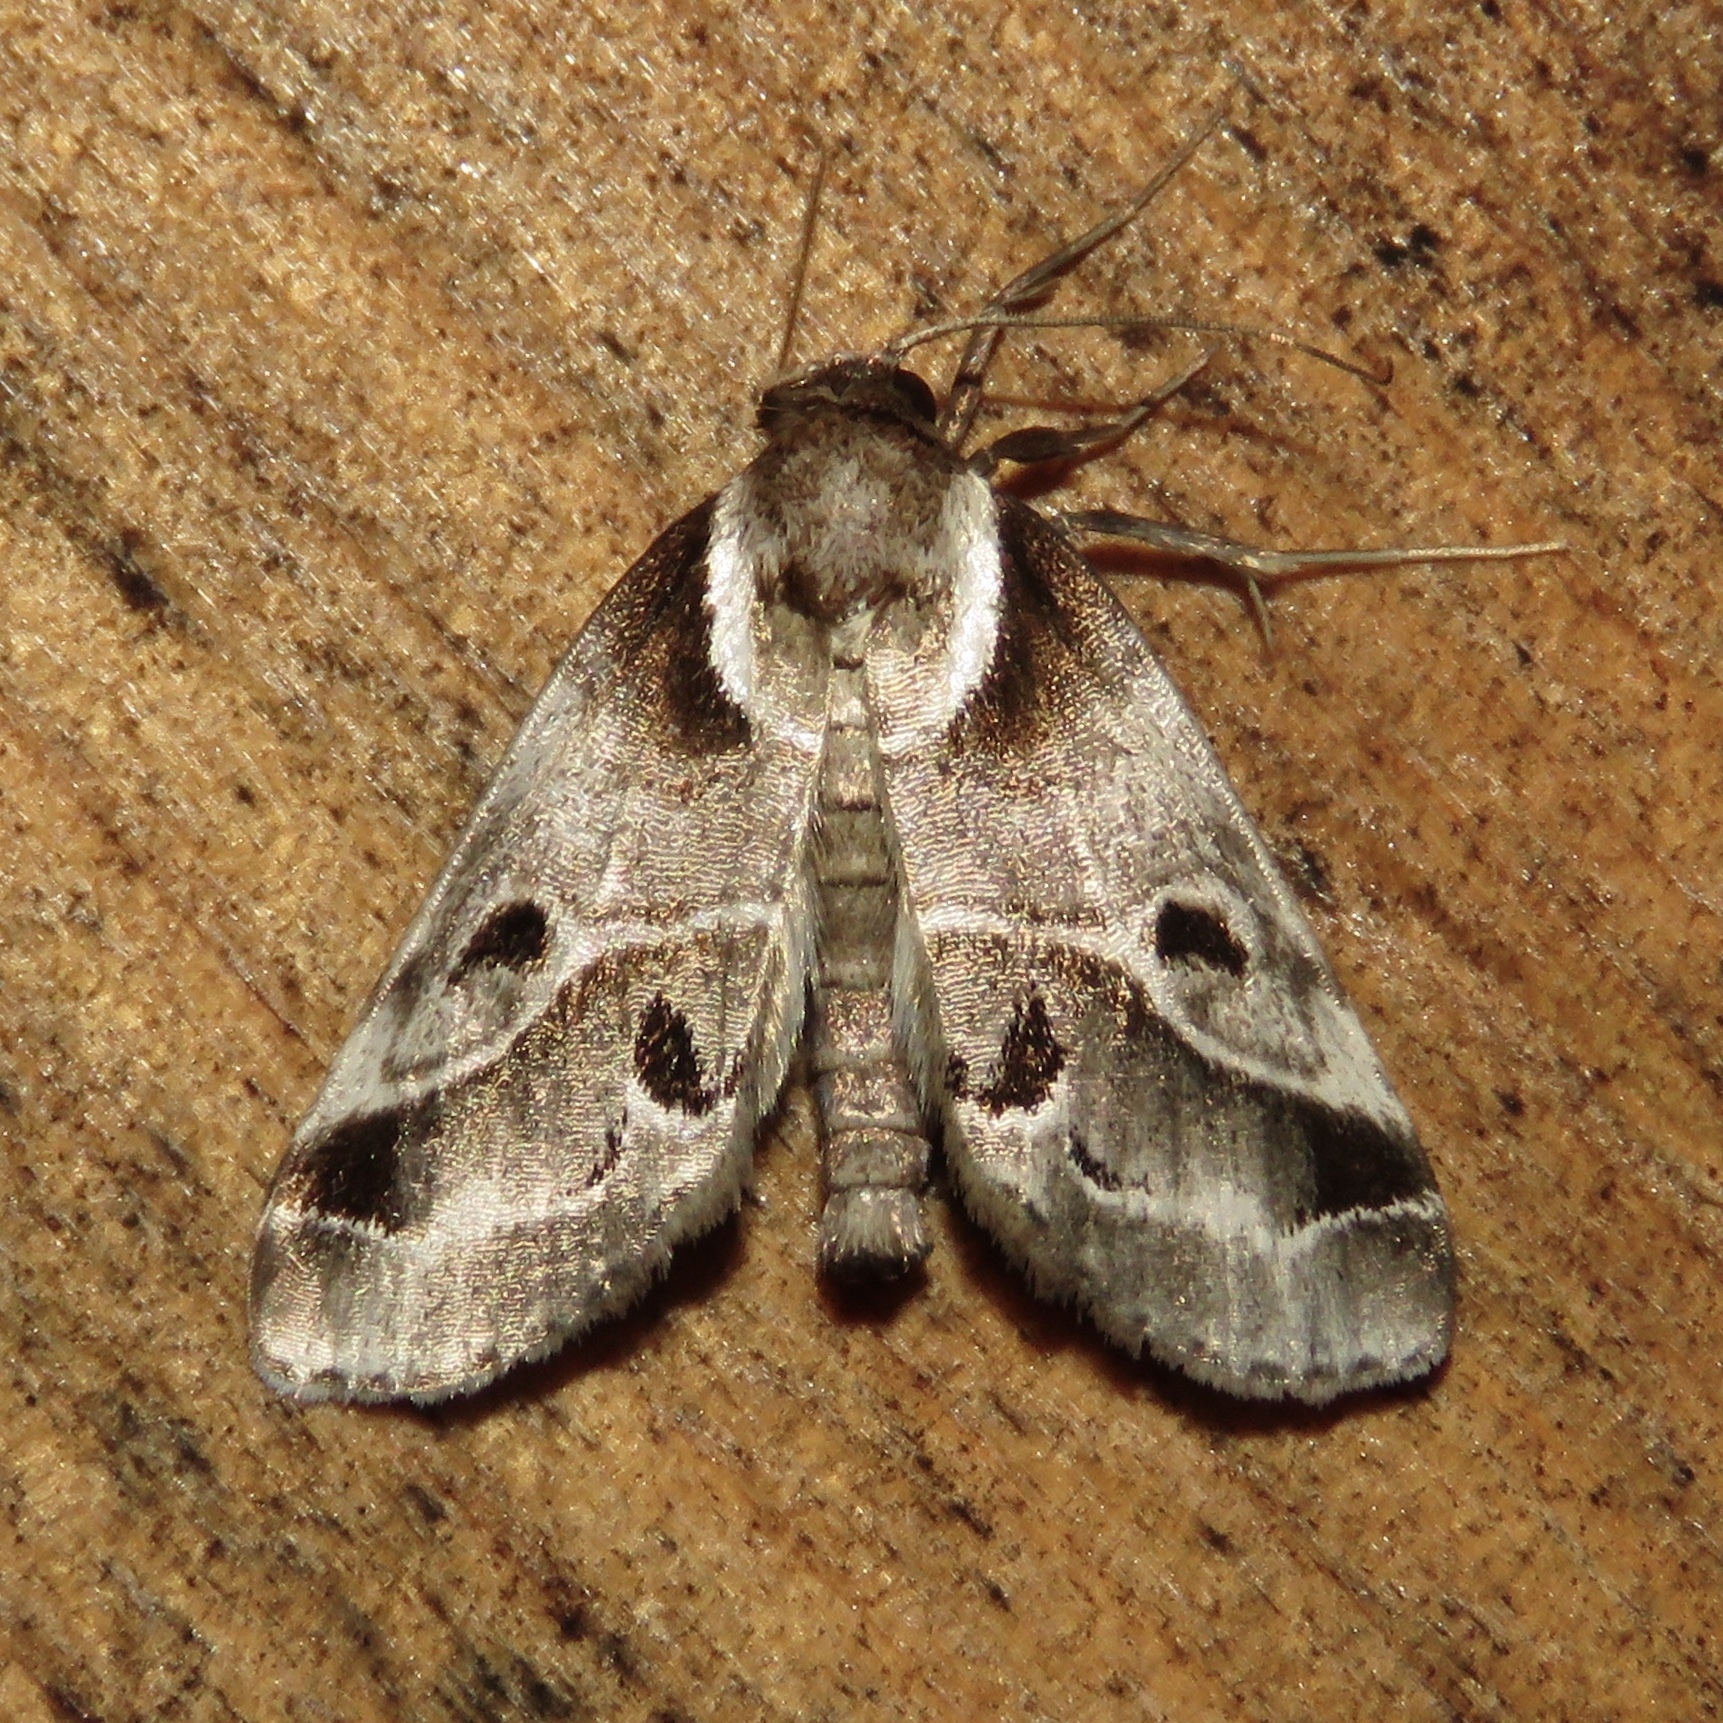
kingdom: Animalia
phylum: Arthropoda
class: Insecta
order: Lepidoptera
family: Nolidae
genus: Baileya
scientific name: Baileya doubledayi
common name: Doubleday's baileya moth
